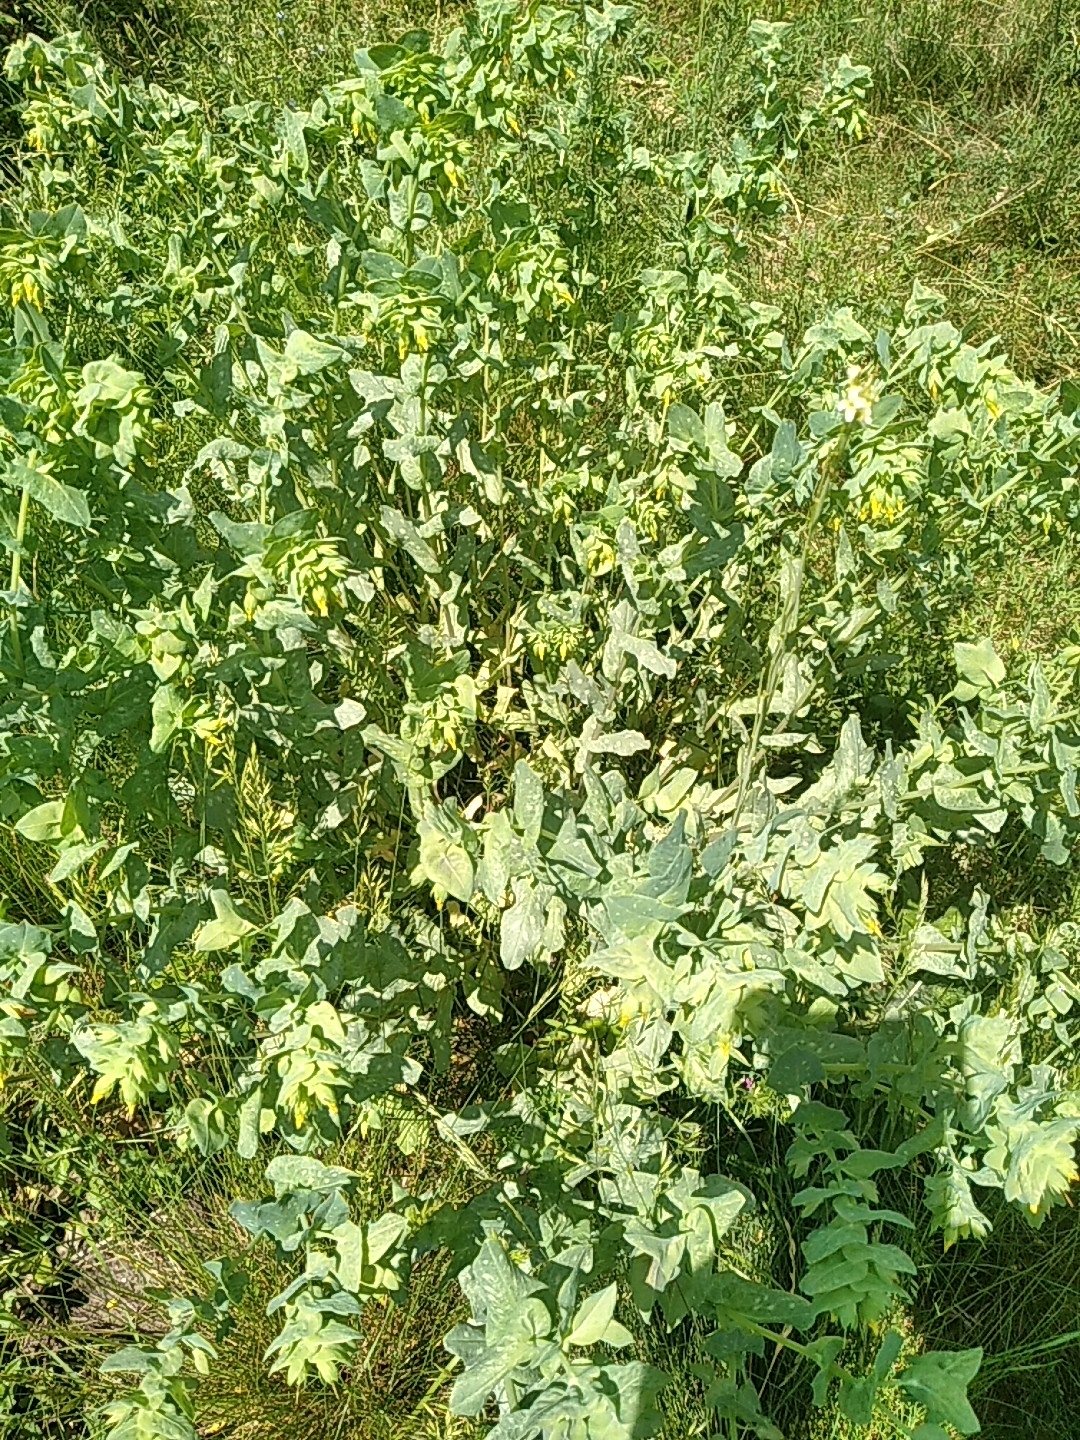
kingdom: Plantae
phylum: Tracheophyta
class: Magnoliopsida
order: Boraginales
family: Boraginaceae
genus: Cerinthe
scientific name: Cerinthe minor
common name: Lesser honeywort
